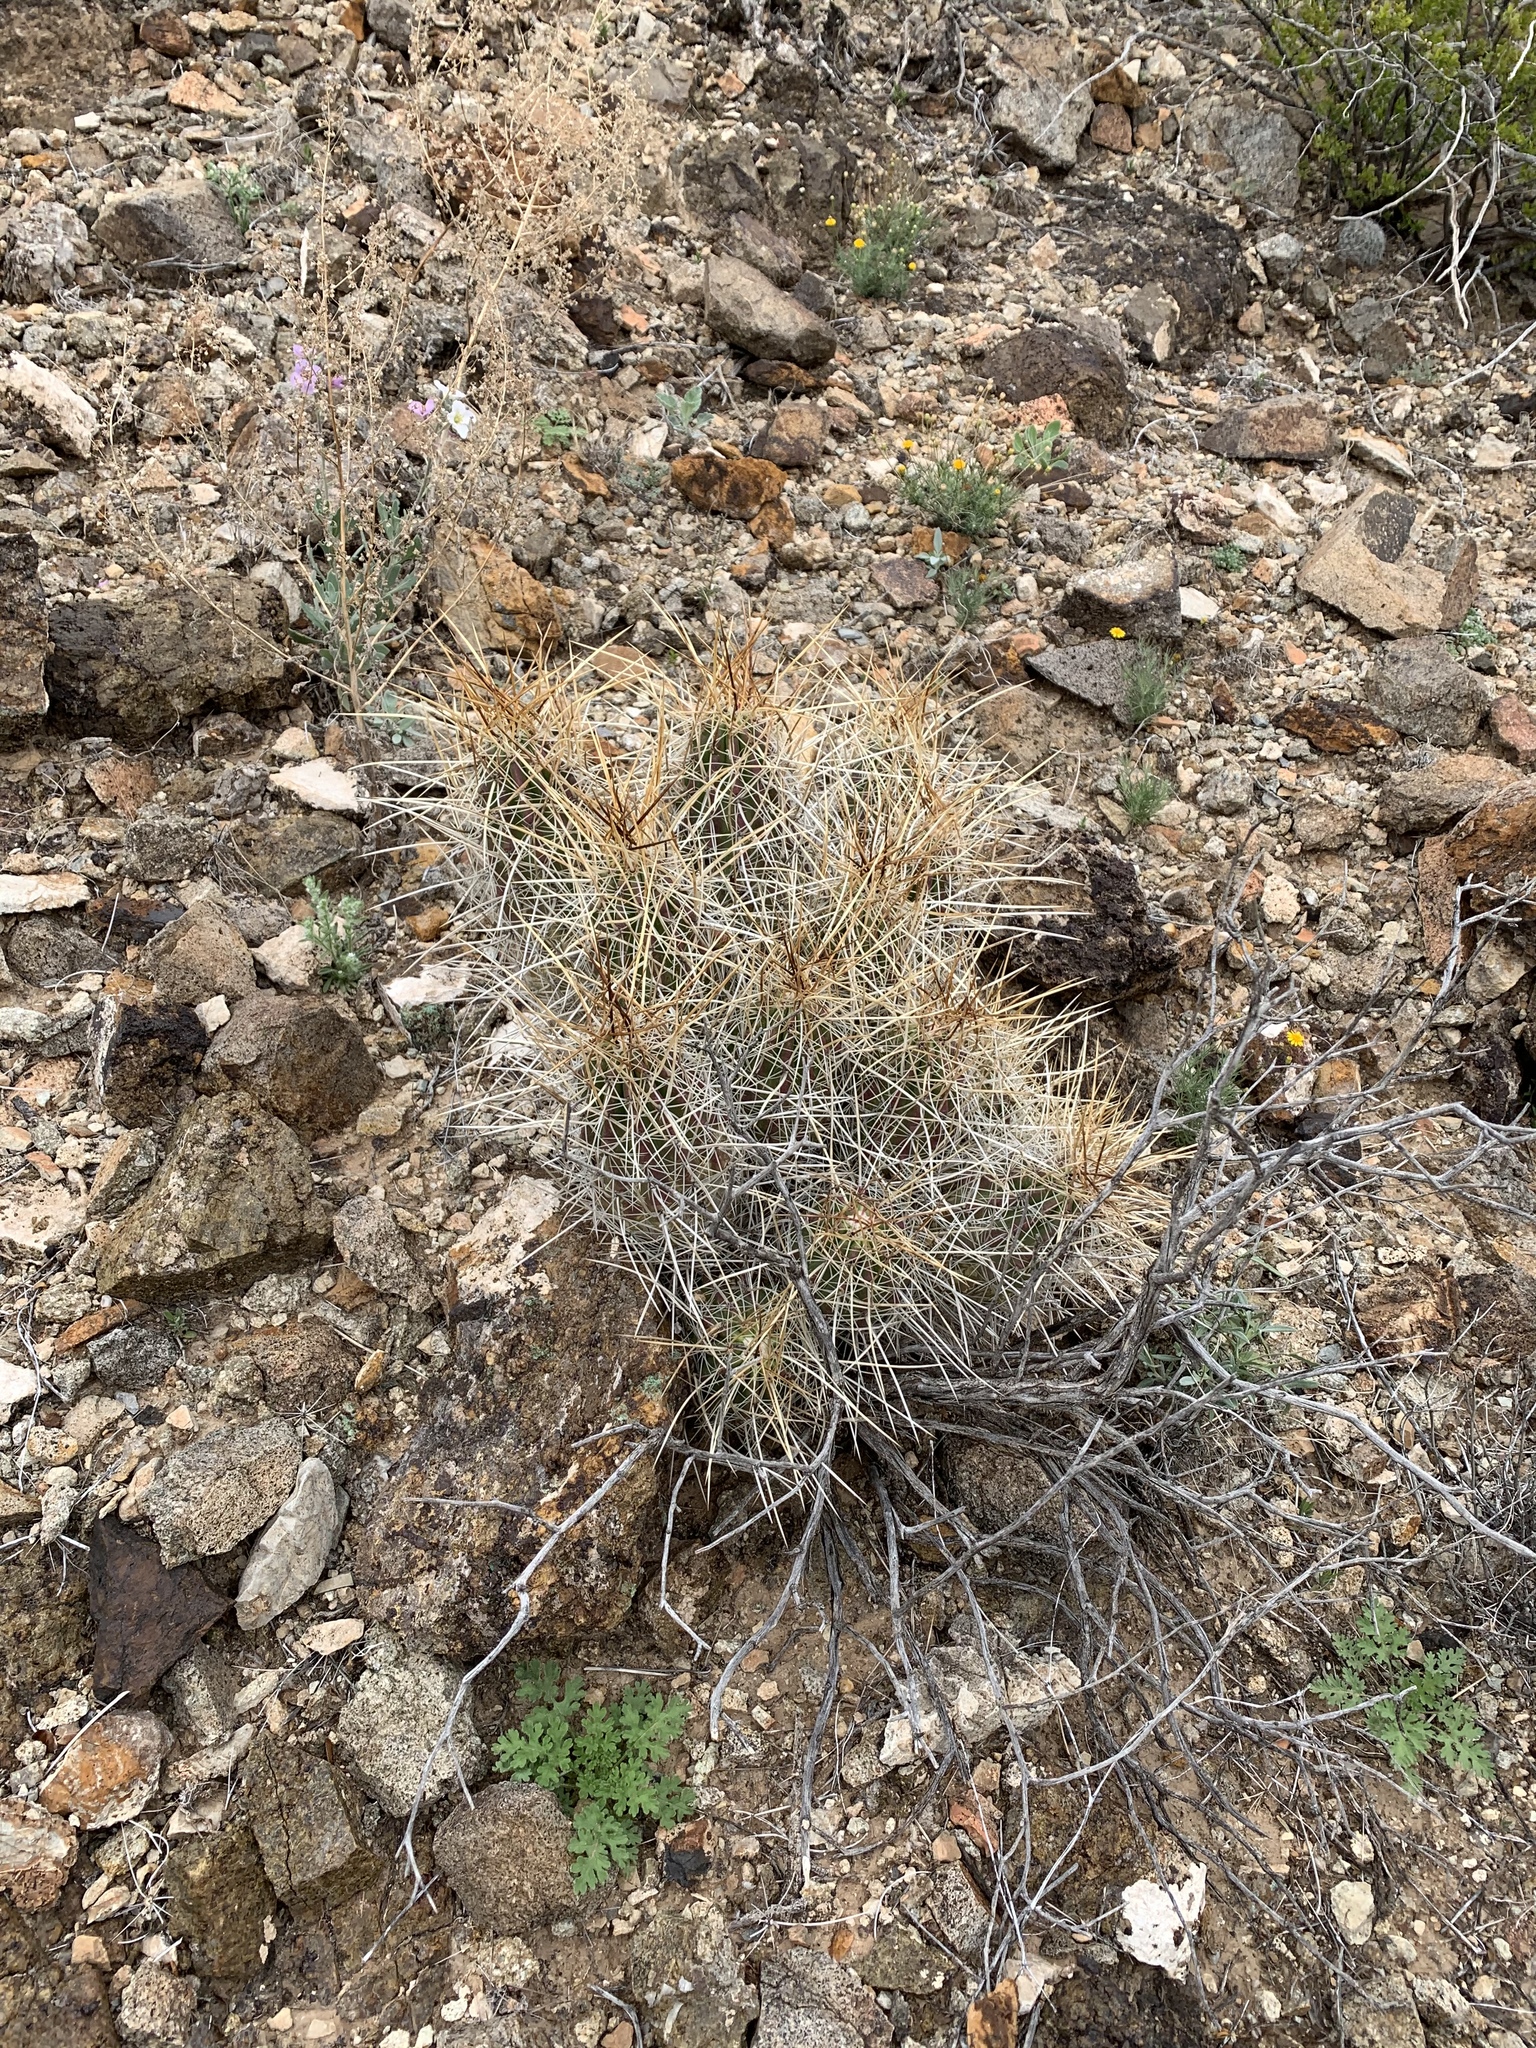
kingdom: Plantae
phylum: Tracheophyta
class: Magnoliopsida
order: Caryophyllales
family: Cactaceae
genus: Echinocereus
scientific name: Echinocereus stramineus
